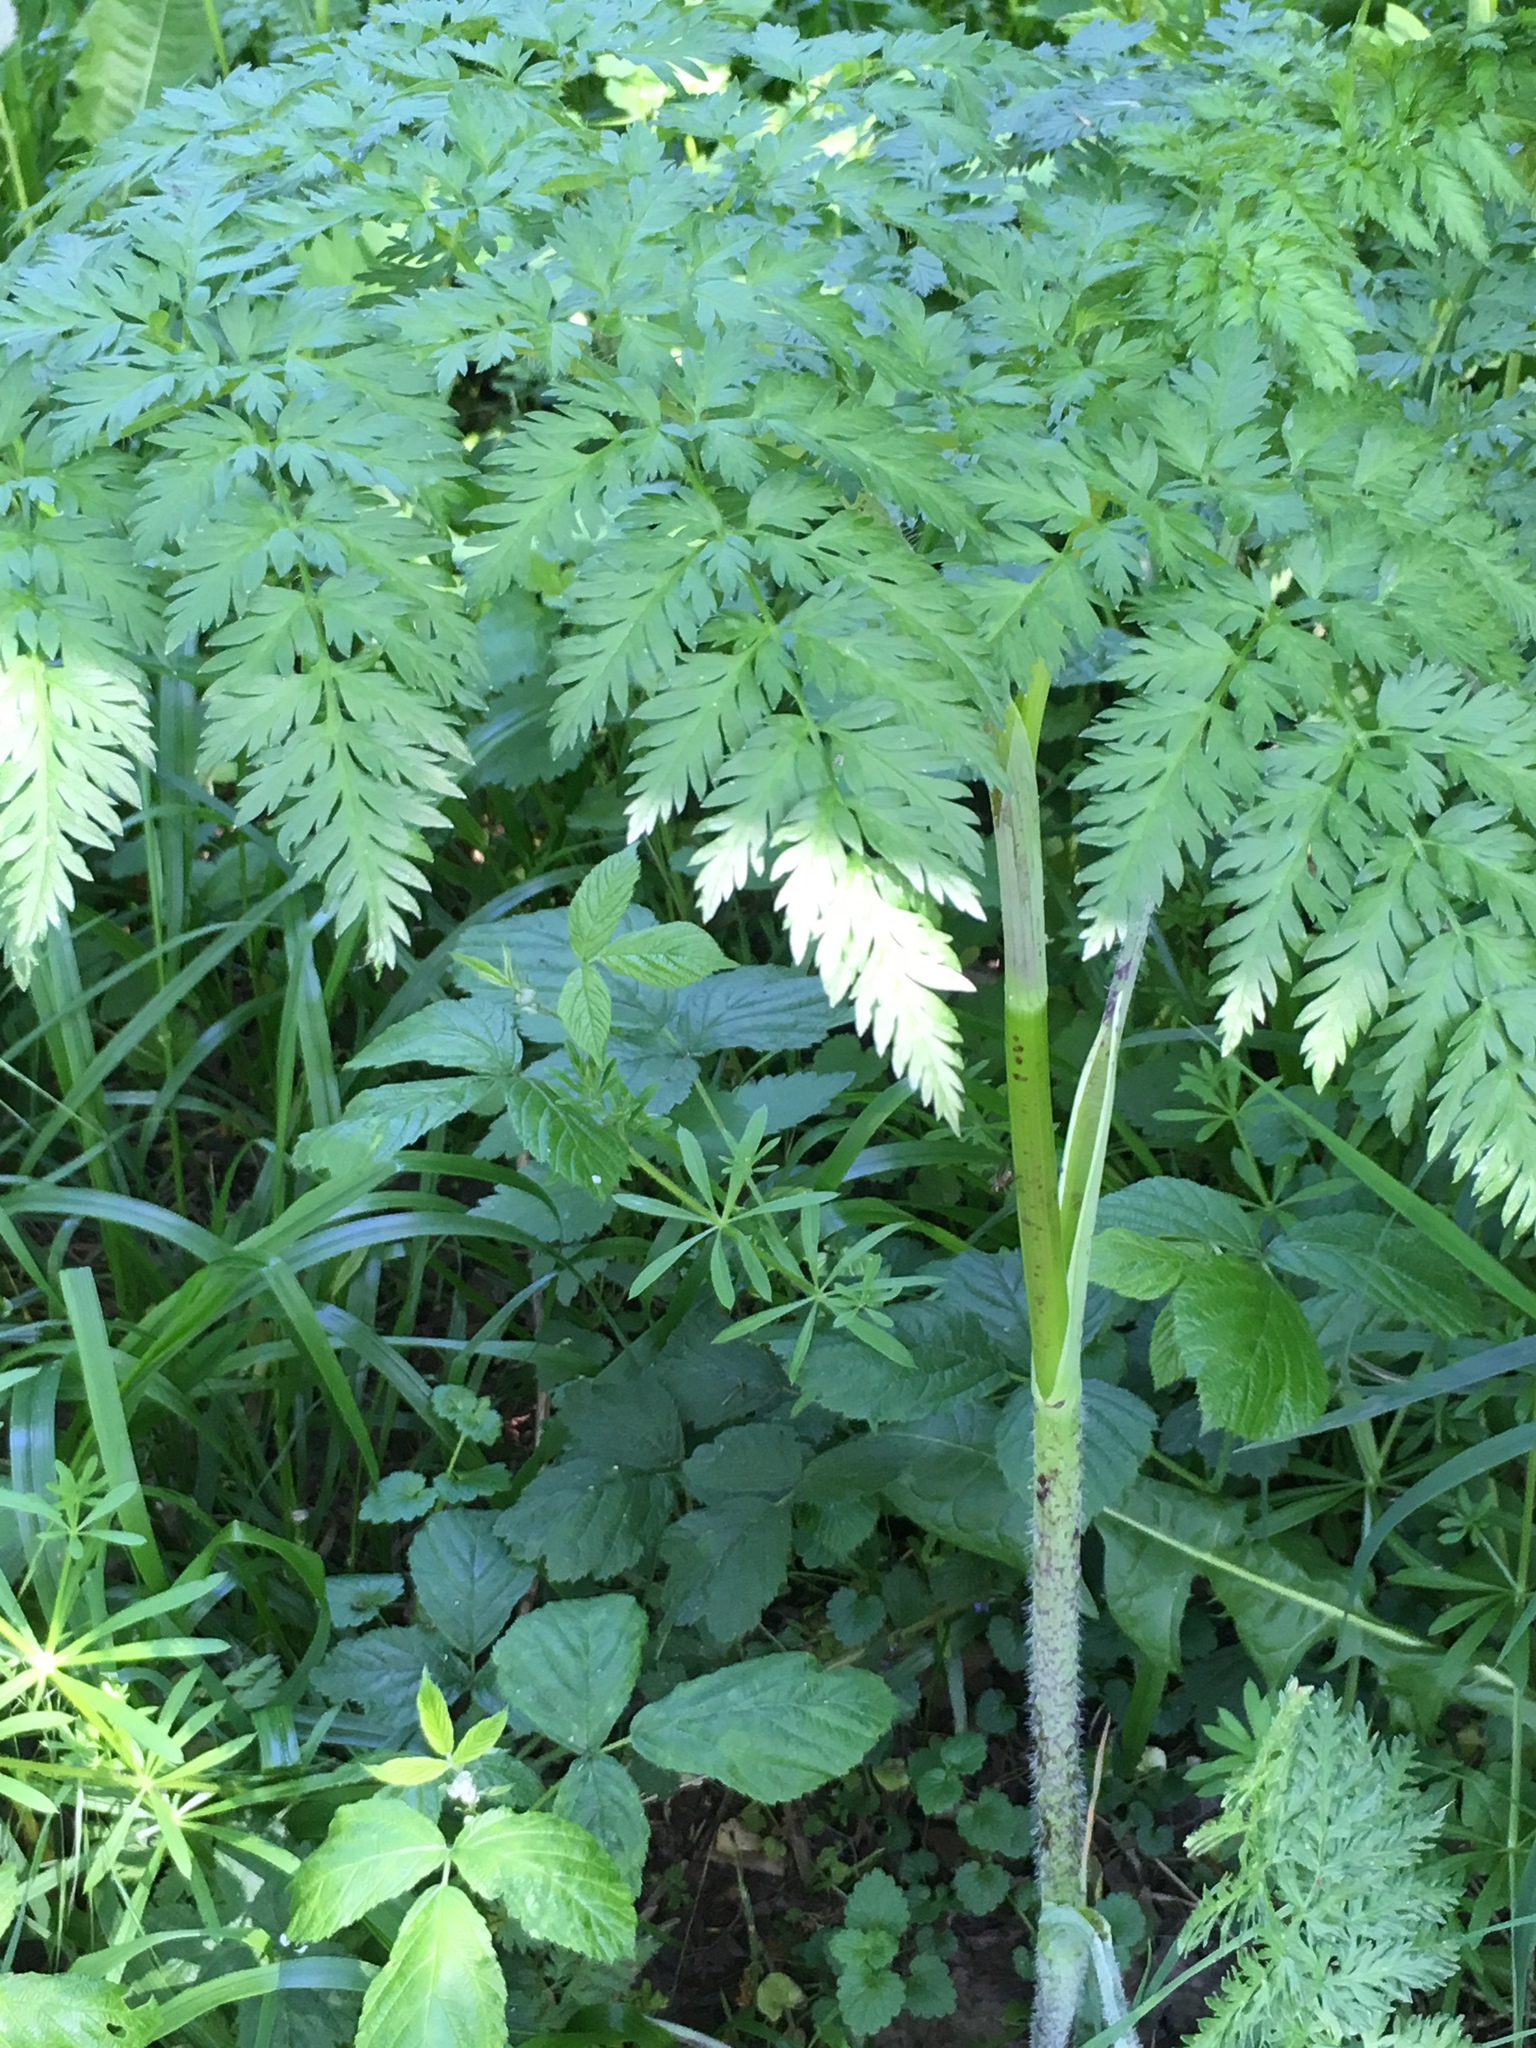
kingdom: Plantae
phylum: Tracheophyta
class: Magnoliopsida
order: Apiales
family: Apiaceae
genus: Chaerophyllum
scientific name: Chaerophyllum bulbosum
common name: Bulbous chervil
